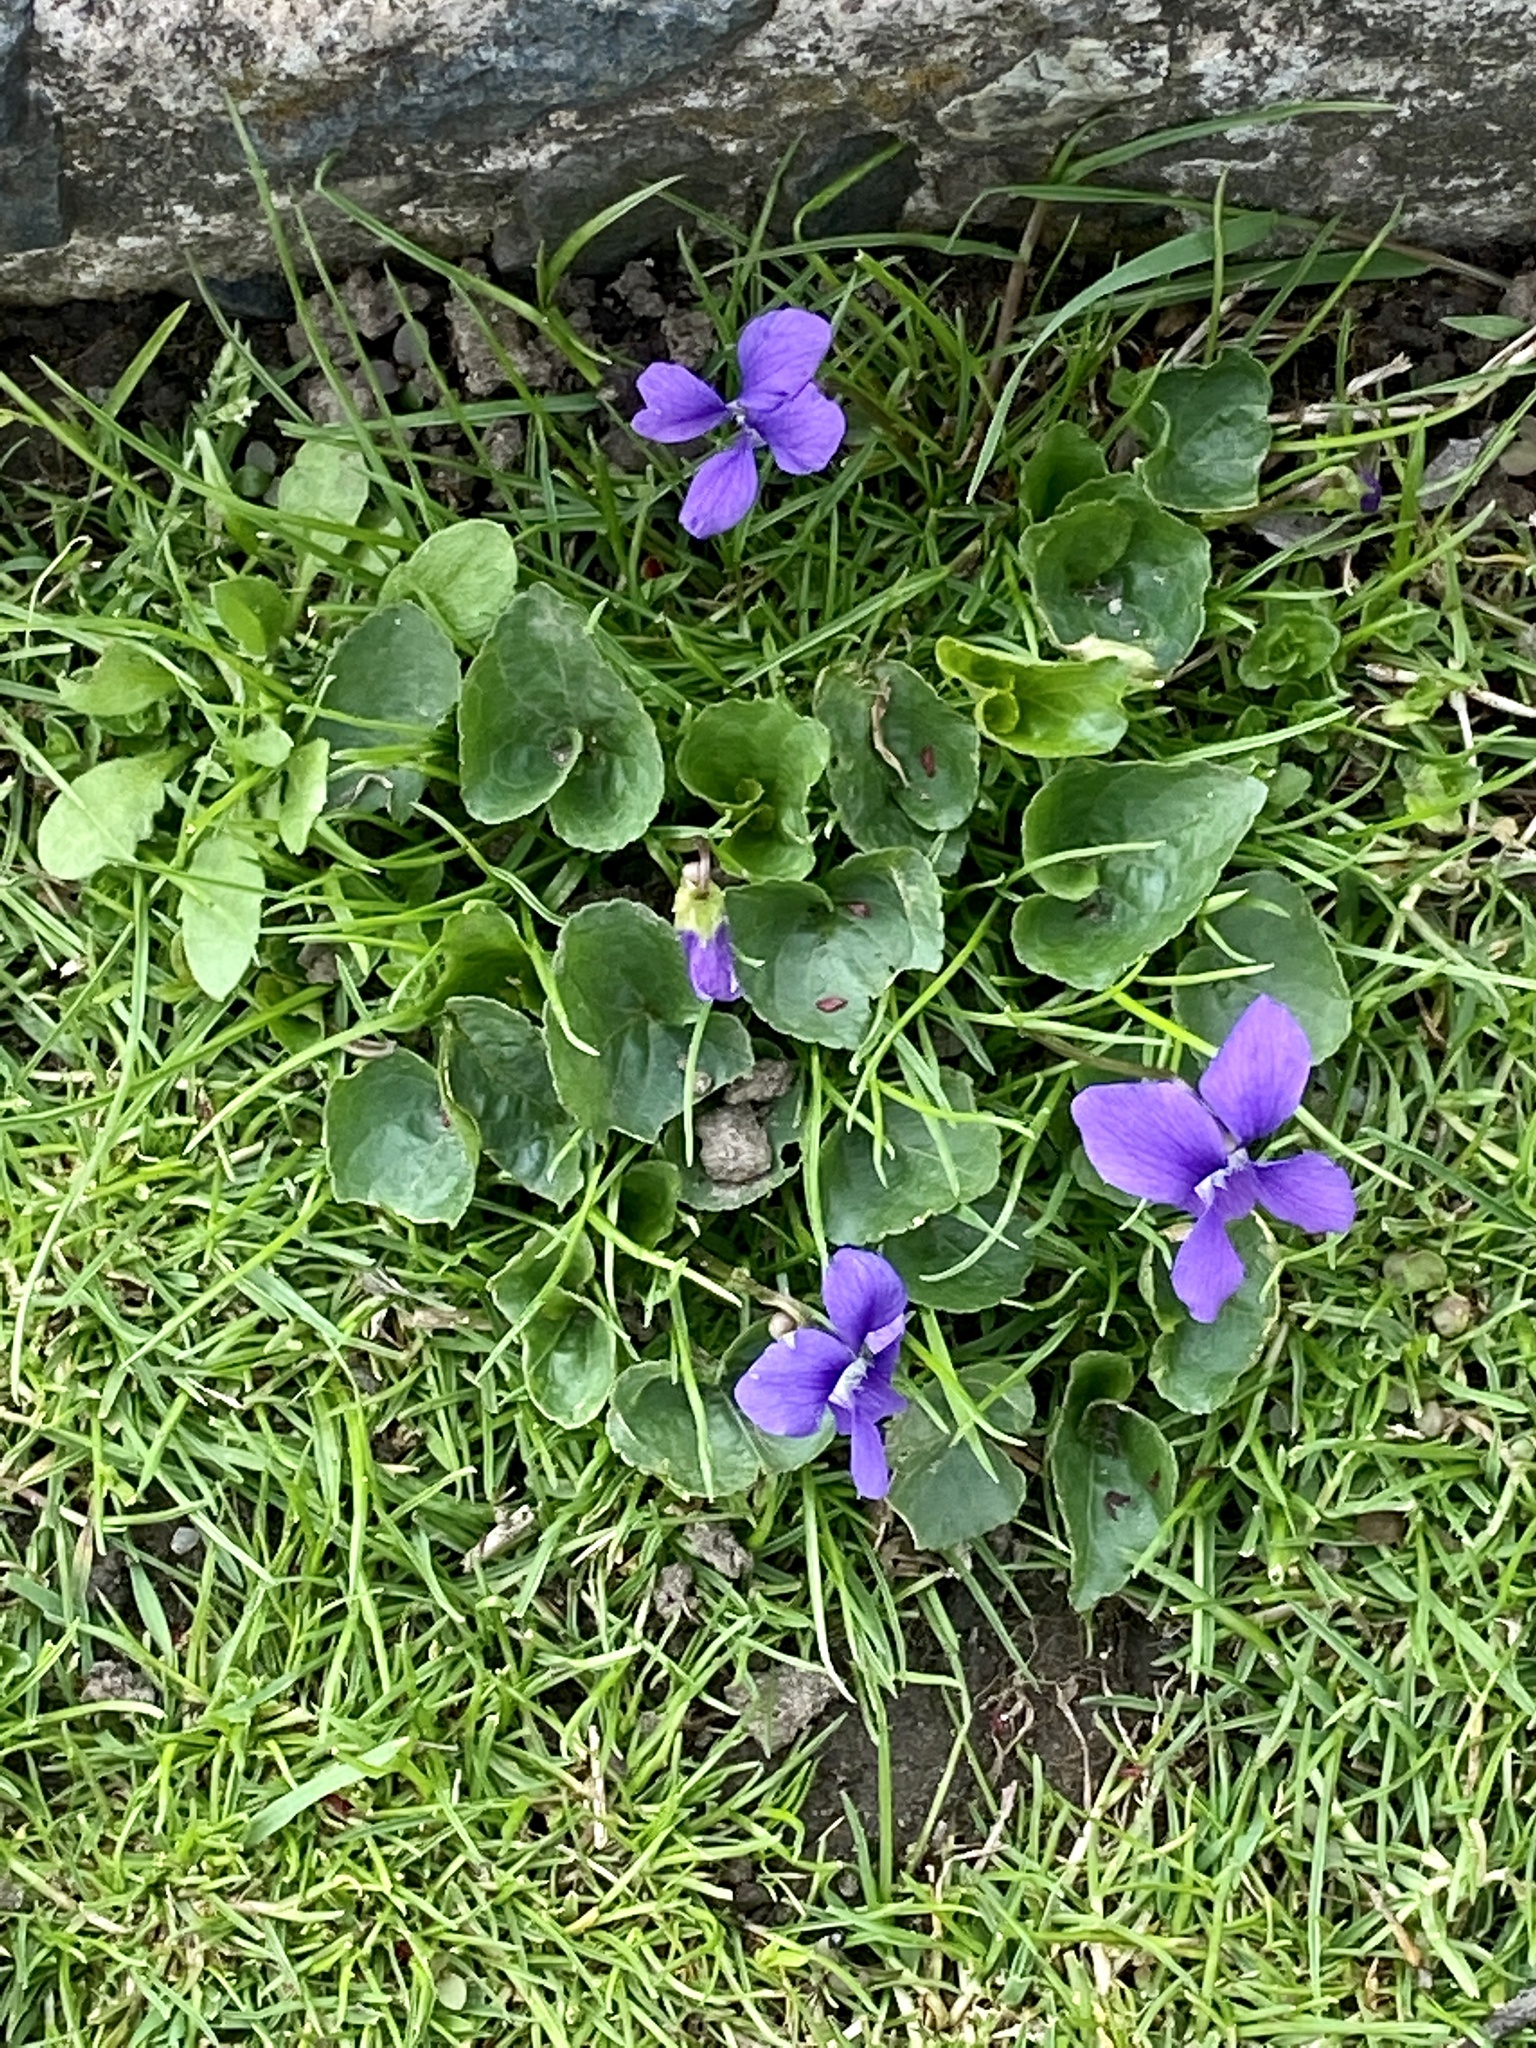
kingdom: Plantae
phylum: Tracheophyta
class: Magnoliopsida
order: Malpighiales
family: Violaceae
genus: Viola
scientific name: Viola sororia
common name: Dooryard violet
